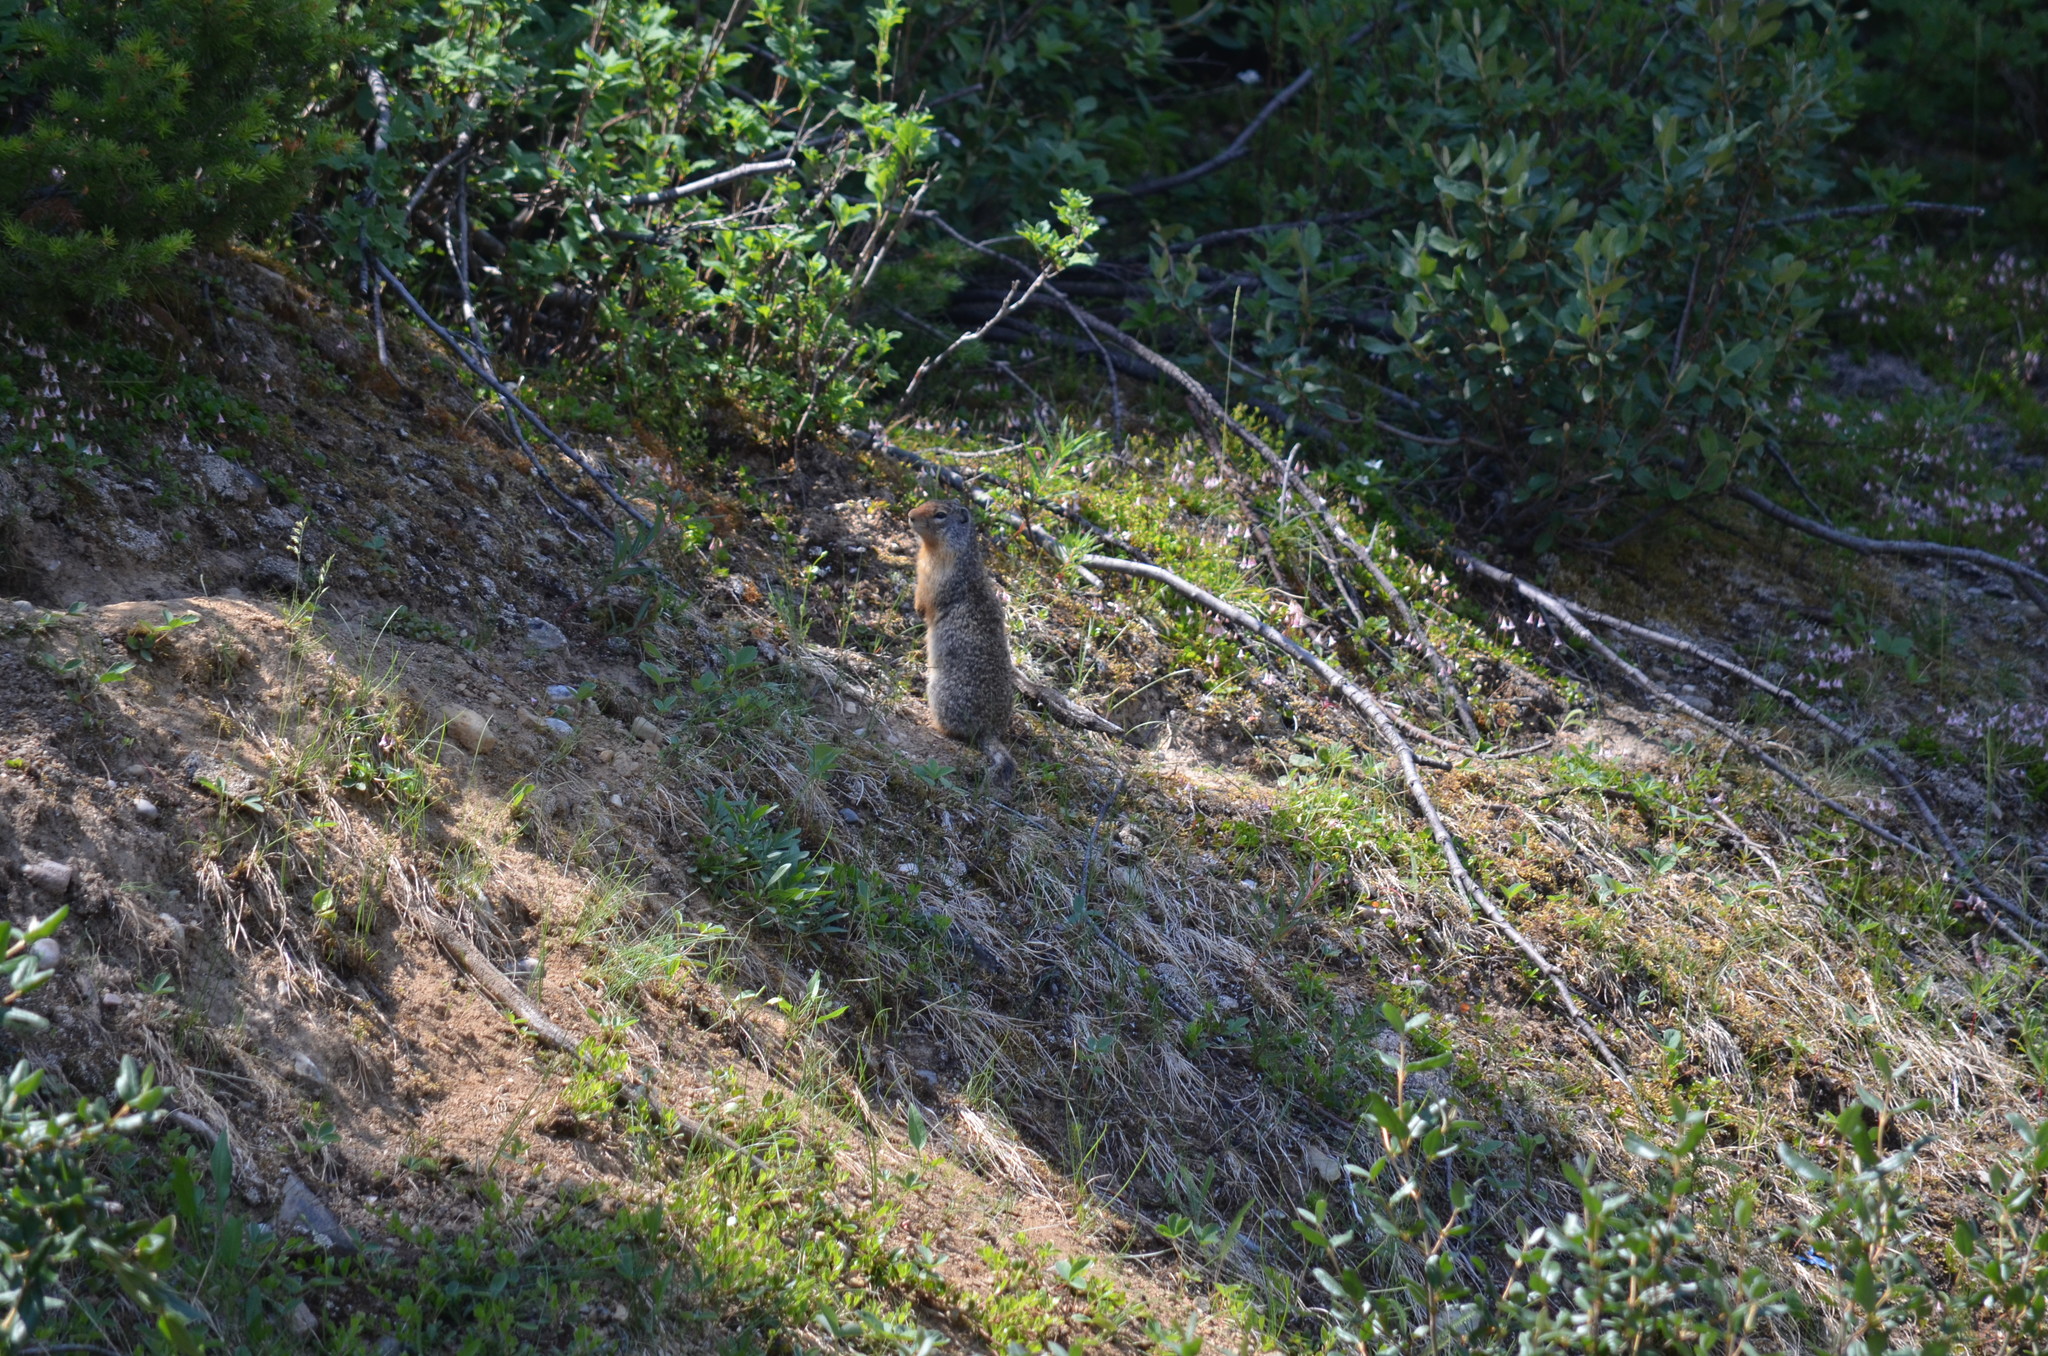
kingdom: Animalia
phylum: Chordata
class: Mammalia
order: Rodentia
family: Sciuridae
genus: Urocitellus
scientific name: Urocitellus columbianus
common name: Columbian ground squirrel
